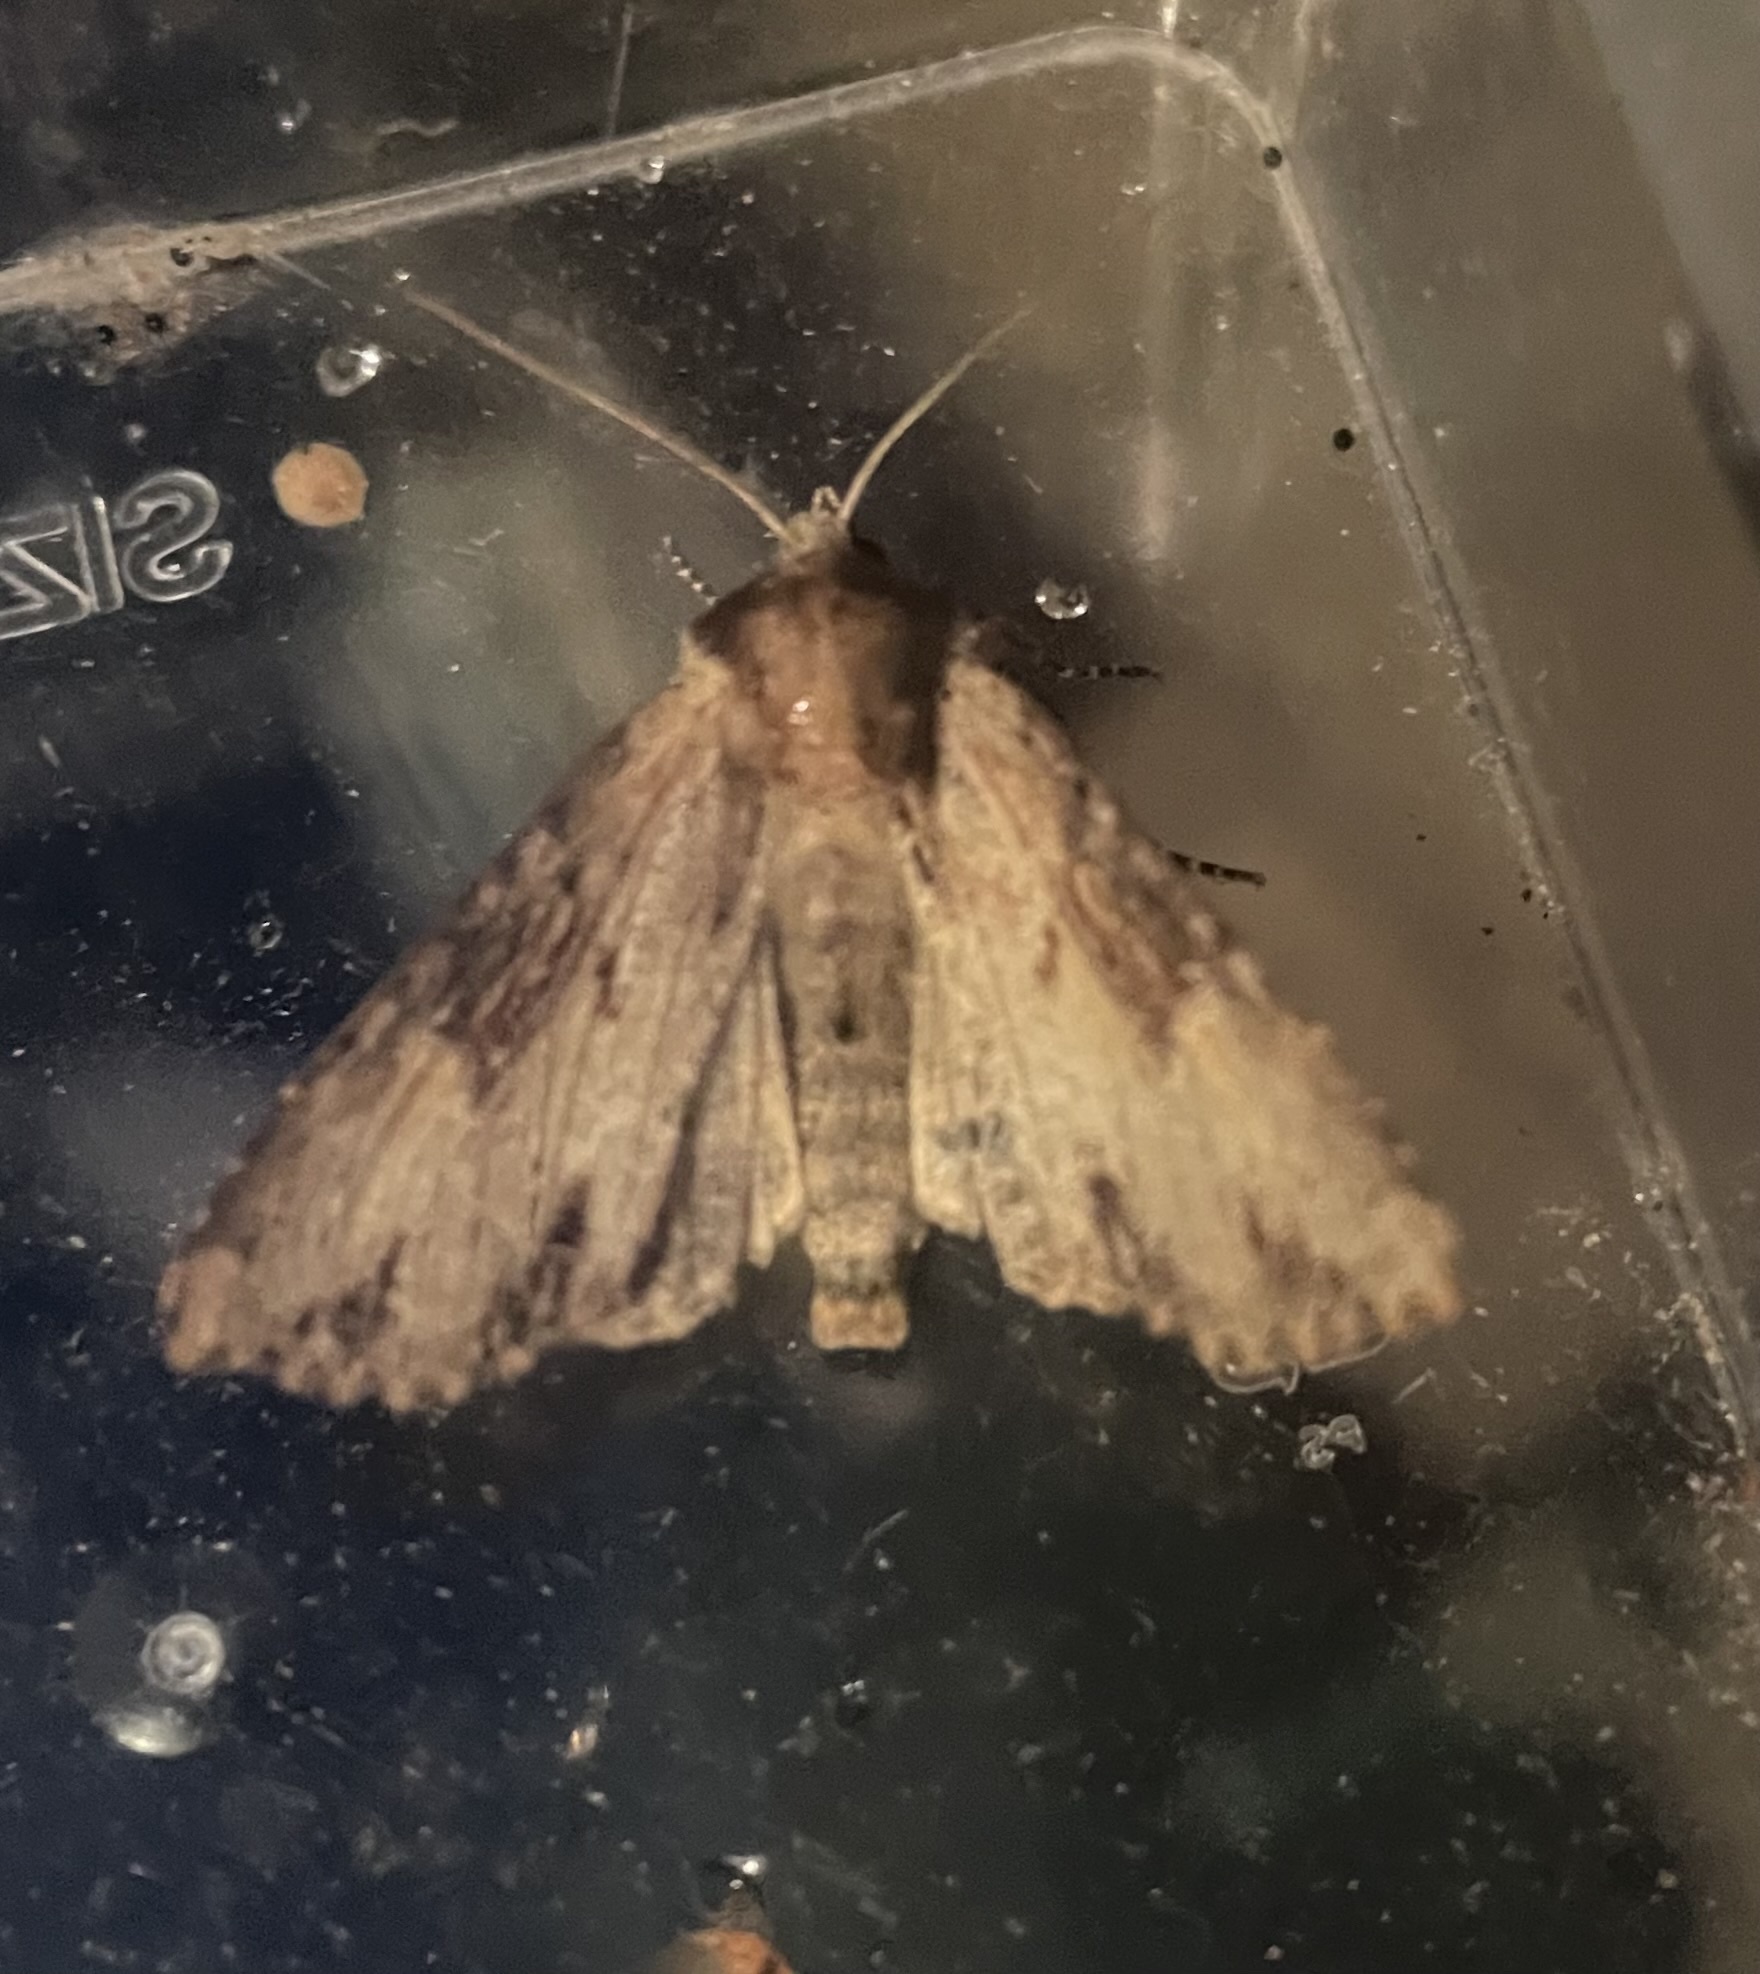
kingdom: Animalia
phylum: Arthropoda
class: Insecta
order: Lepidoptera
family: Noctuidae
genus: Apamea
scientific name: Apamea crenata
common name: Clouded-bordered brindle
